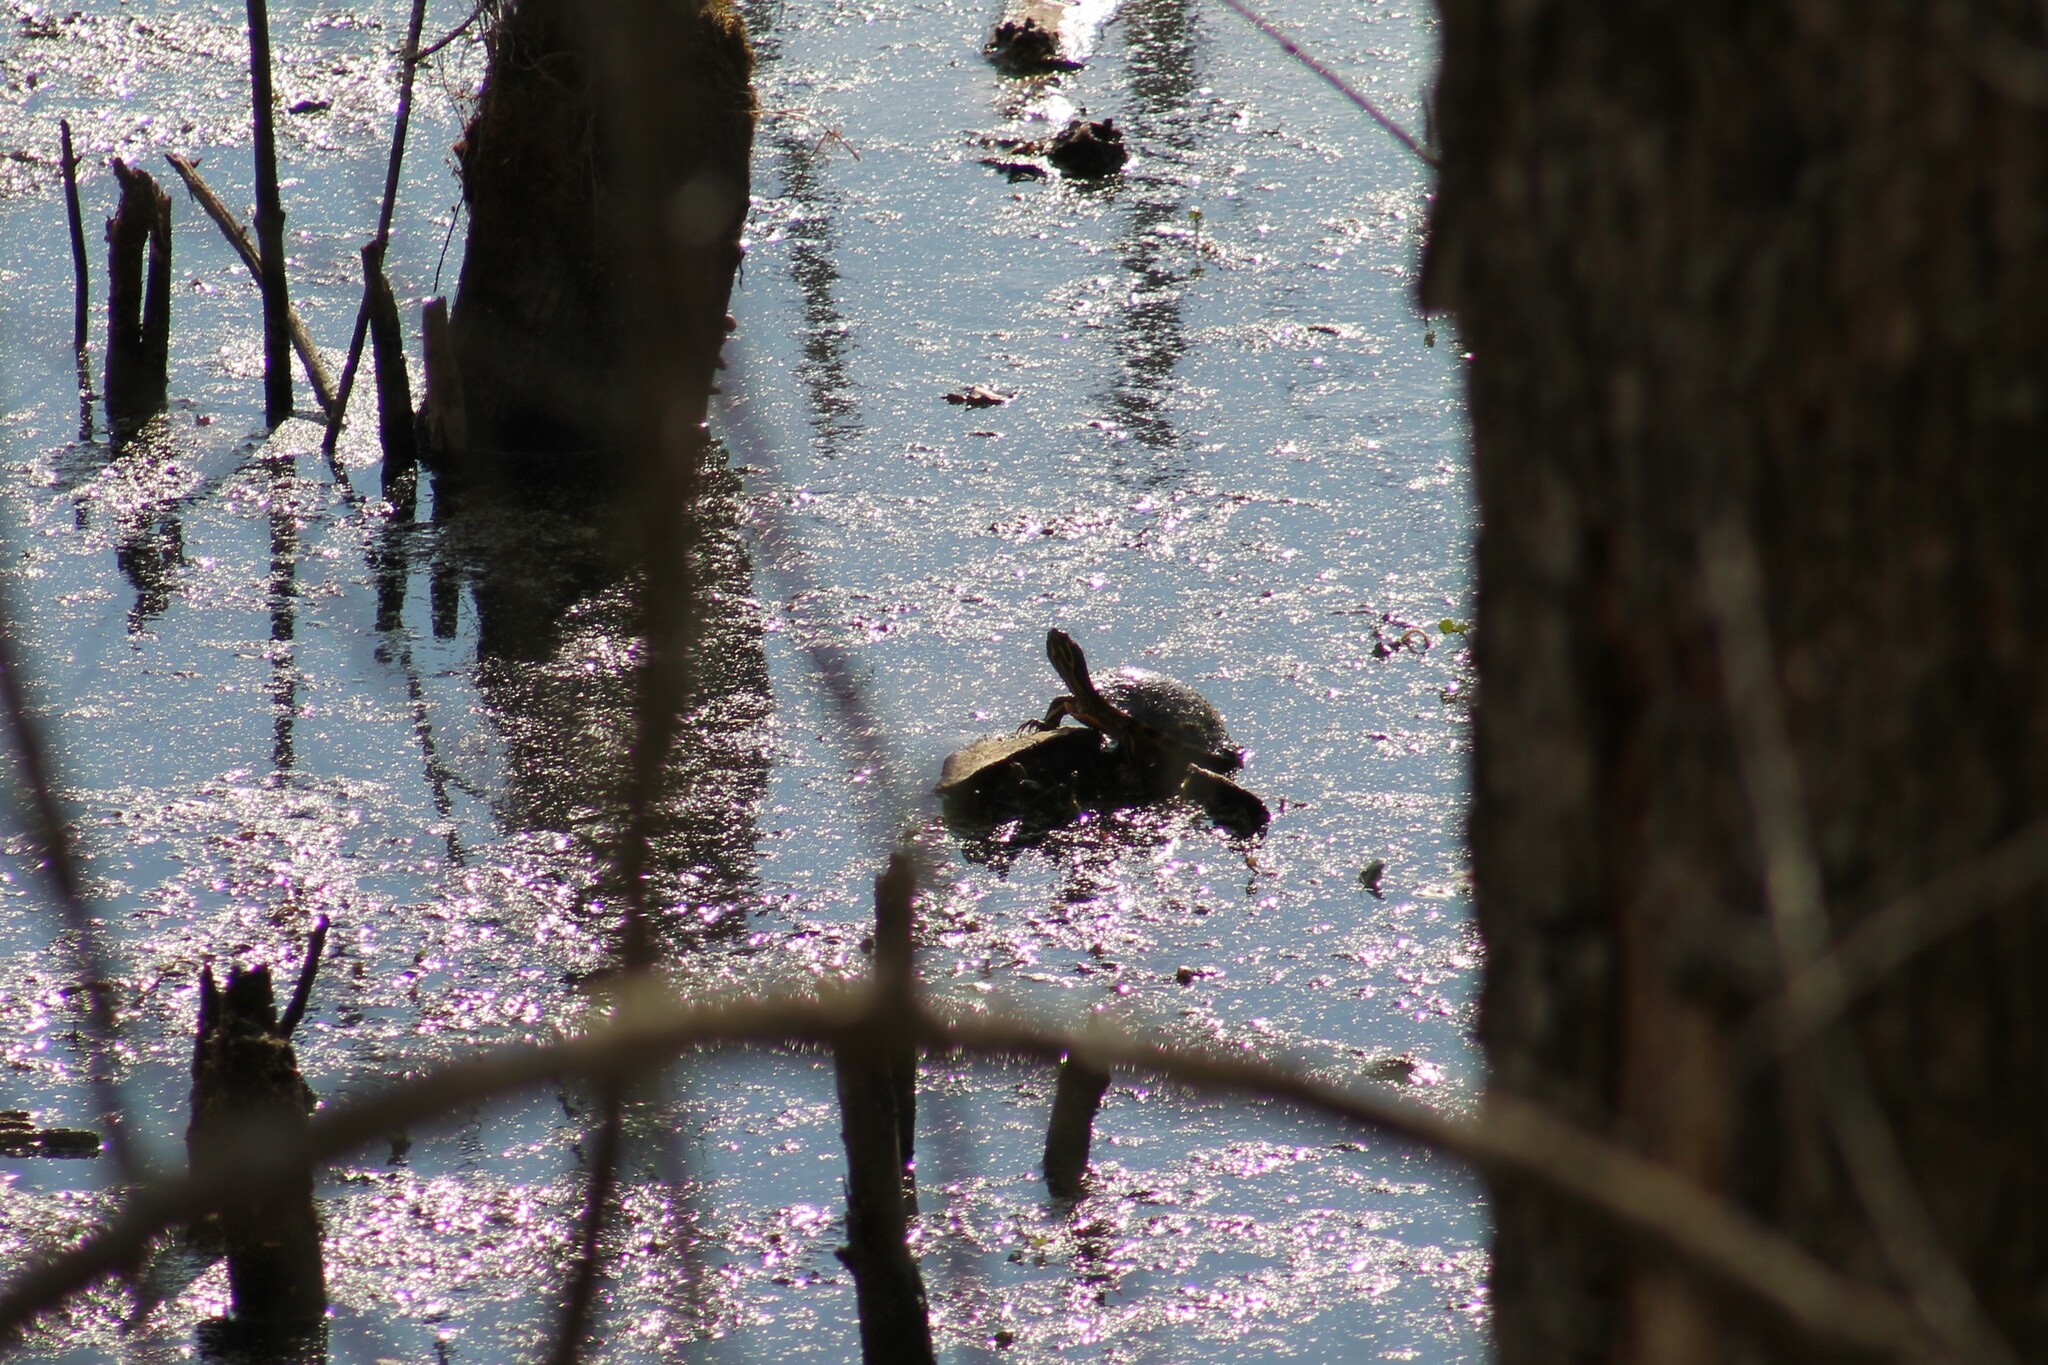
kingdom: Animalia
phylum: Chordata
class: Testudines
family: Emydidae
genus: Trachemys
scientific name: Trachemys scripta
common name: Slider
